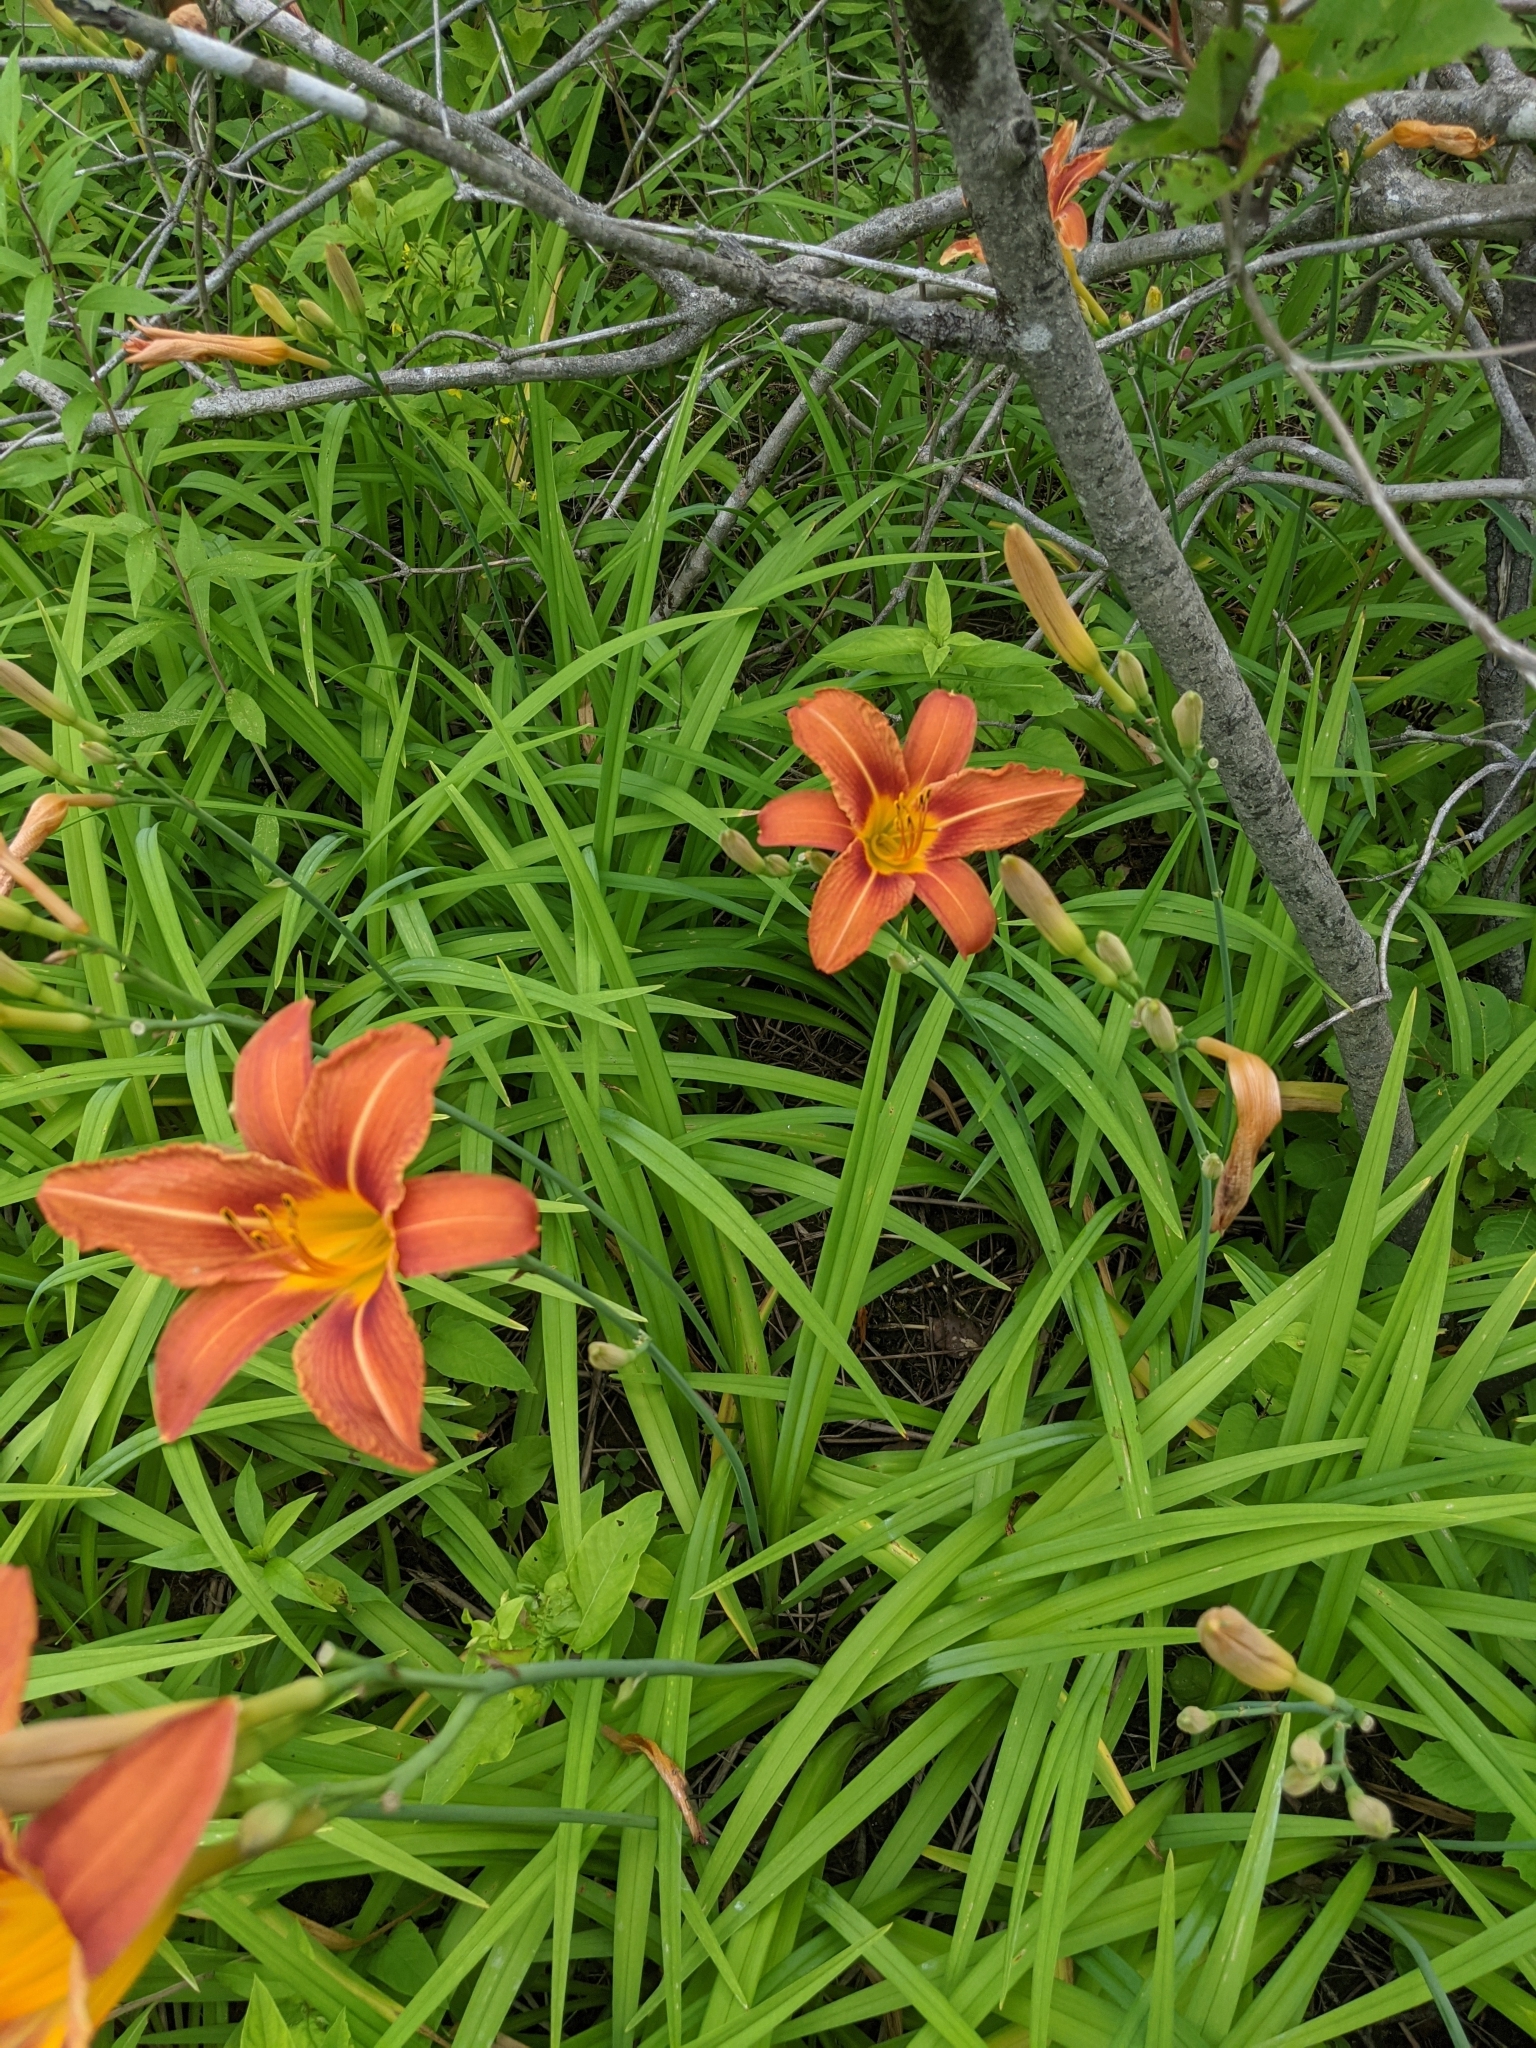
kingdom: Plantae
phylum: Tracheophyta
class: Liliopsida
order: Asparagales
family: Asphodelaceae
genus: Hemerocallis
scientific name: Hemerocallis fulva
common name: Orange day-lily
